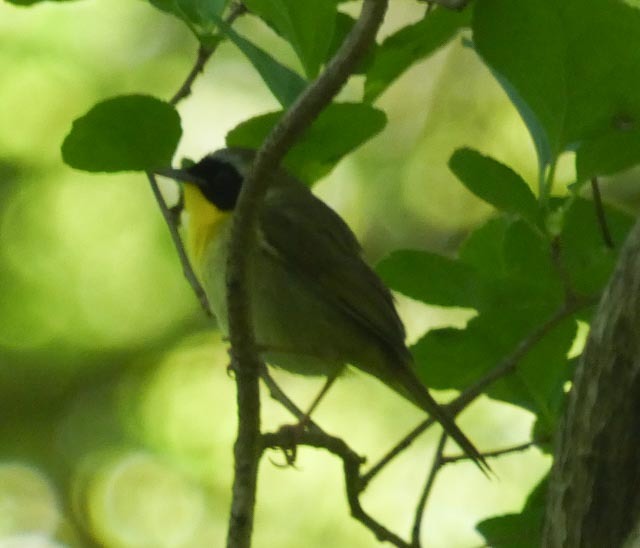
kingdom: Animalia
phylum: Chordata
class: Aves
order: Passeriformes
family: Parulidae
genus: Geothlypis
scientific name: Geothlypis trichas
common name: Common yellowthroat
